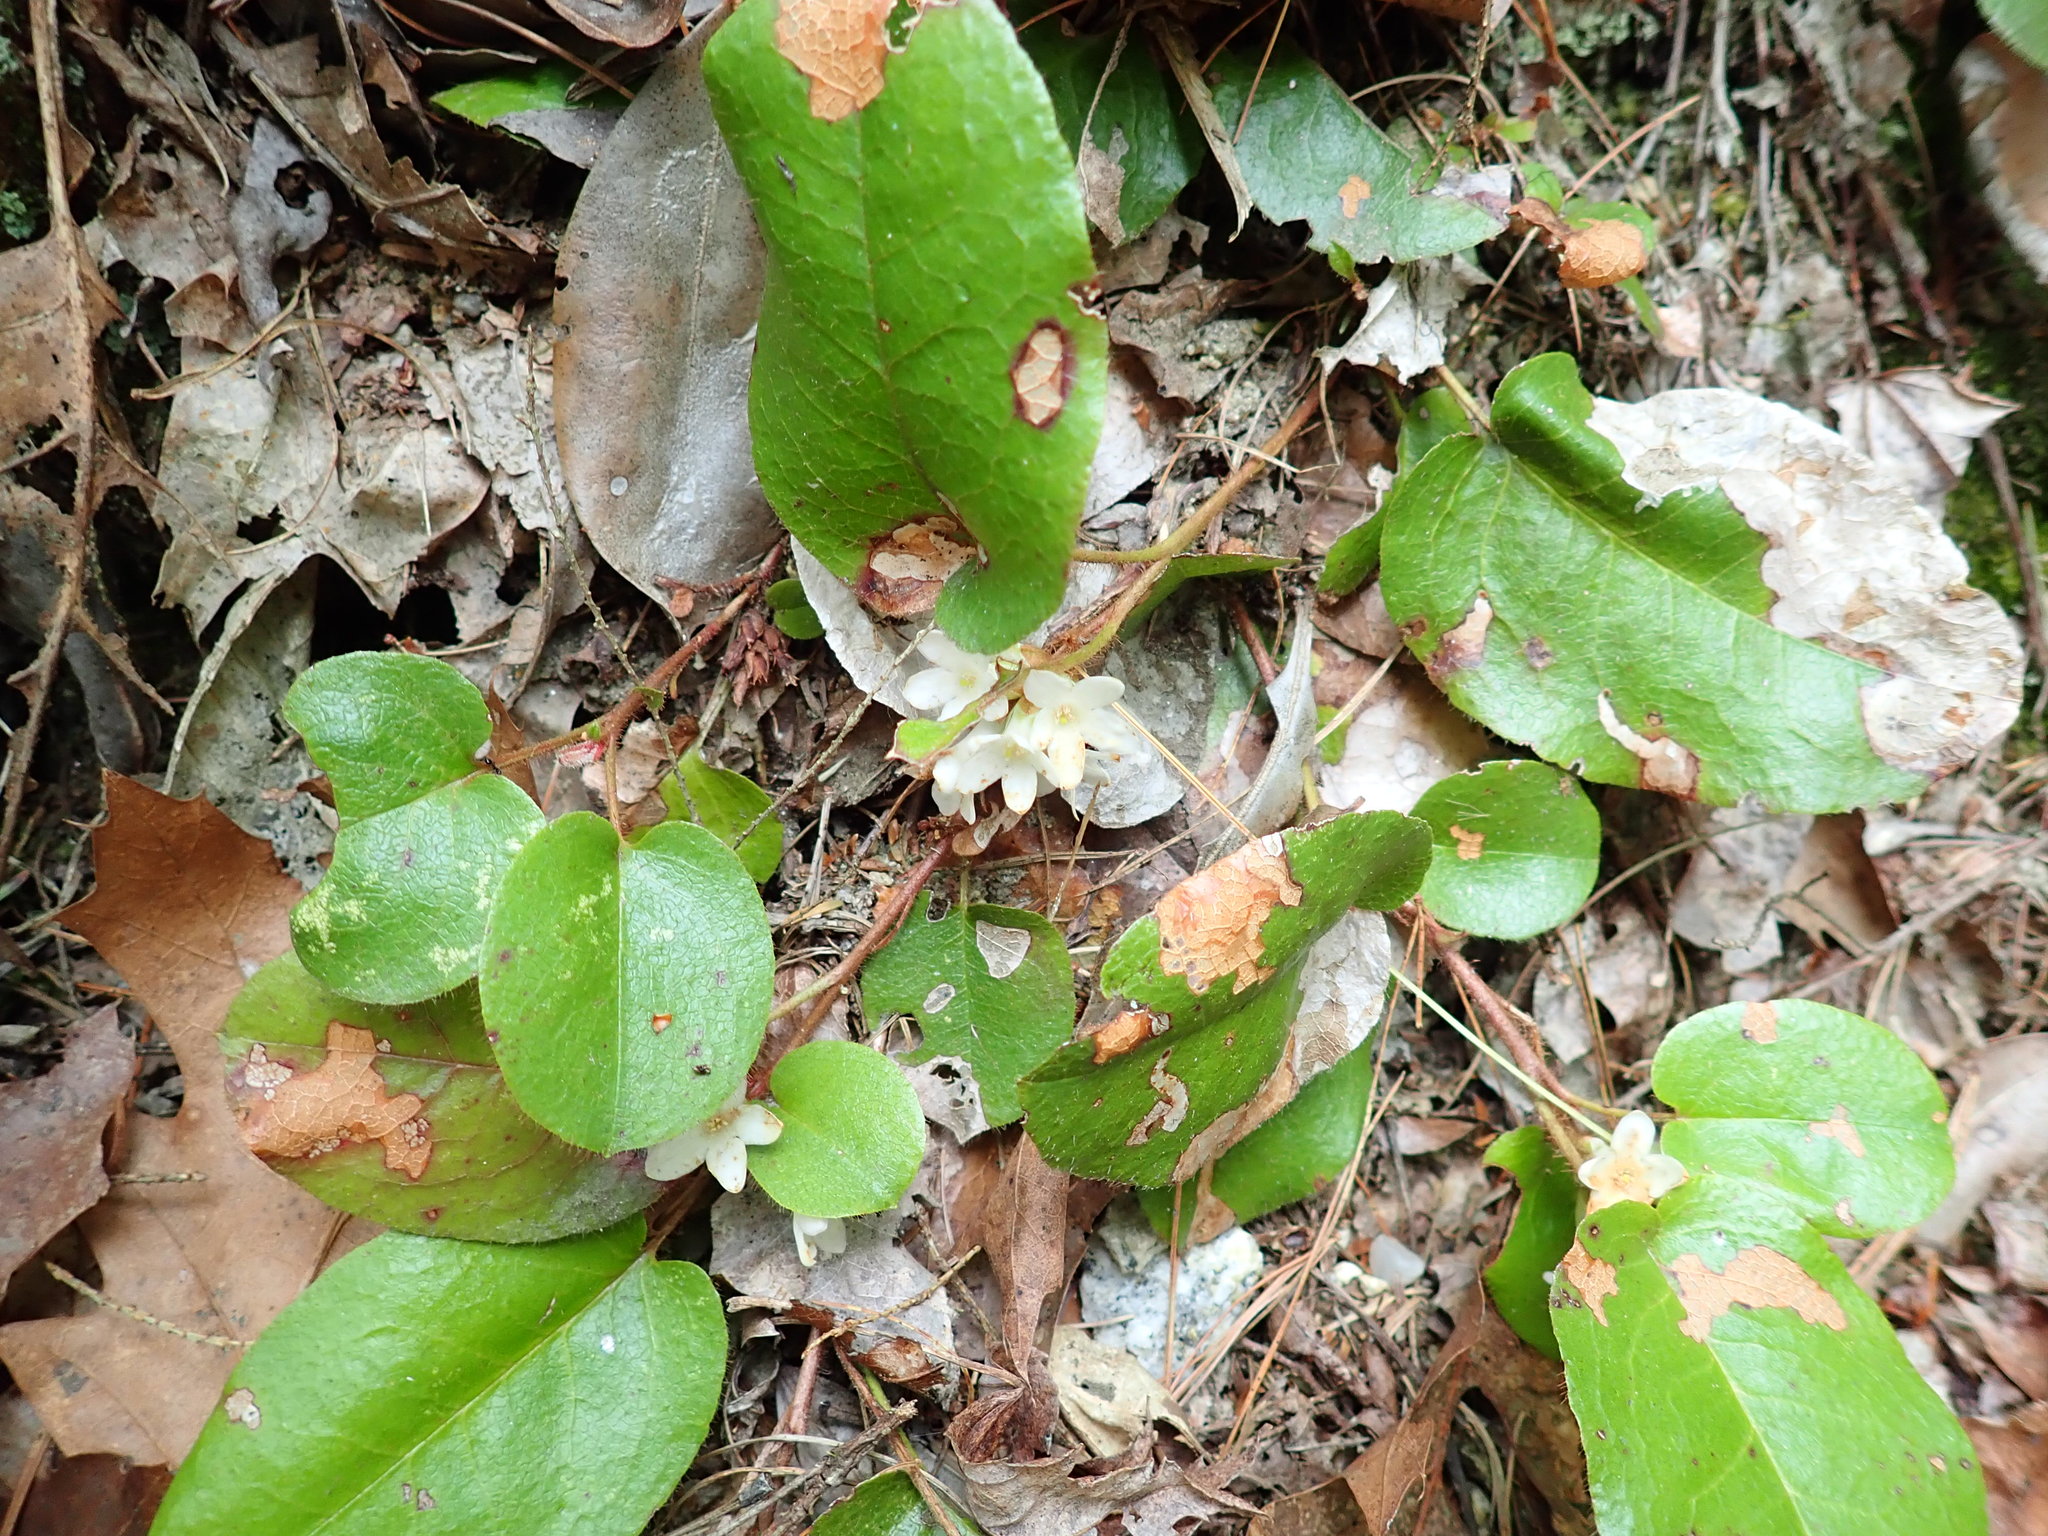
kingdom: Plantae
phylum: Tracheophyta
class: Magnoliopsida
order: Ericales
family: Ericaceae
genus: Epigaea
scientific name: Epigaea repens
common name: Gravelroot
